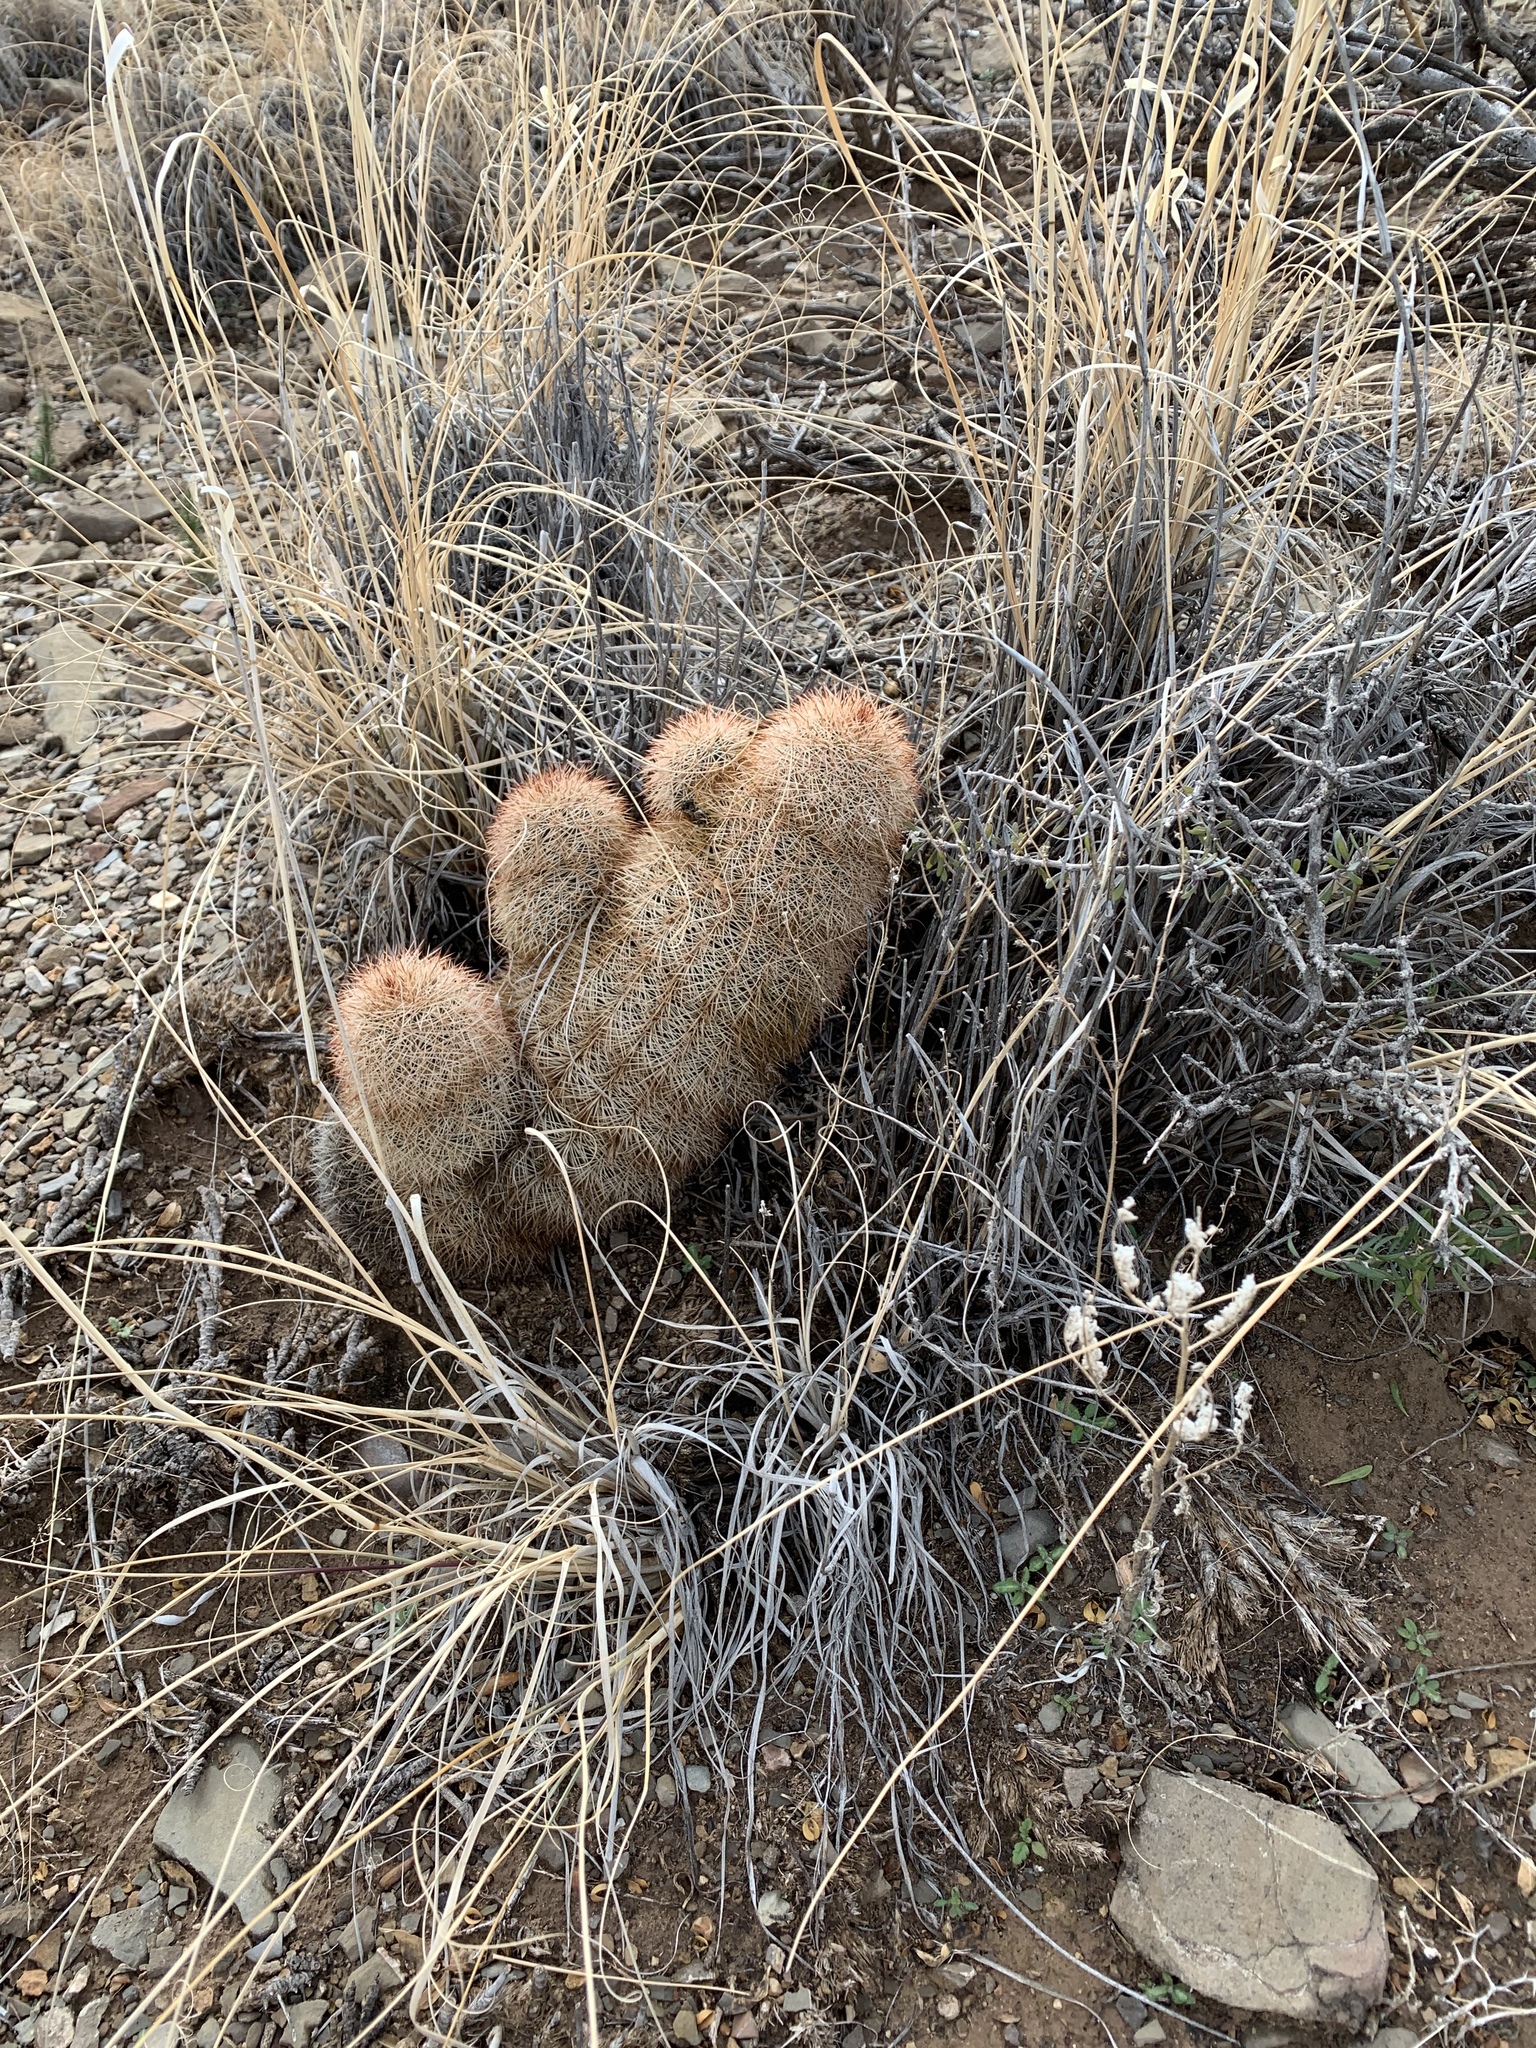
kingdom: Plantae
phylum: Tracheophyta
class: Magnoliopsida
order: Caryophyllales
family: Cactaceae
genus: Echinocereus
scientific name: Echinocereus dasyacanthus
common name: Spiny hedgehog cactus
